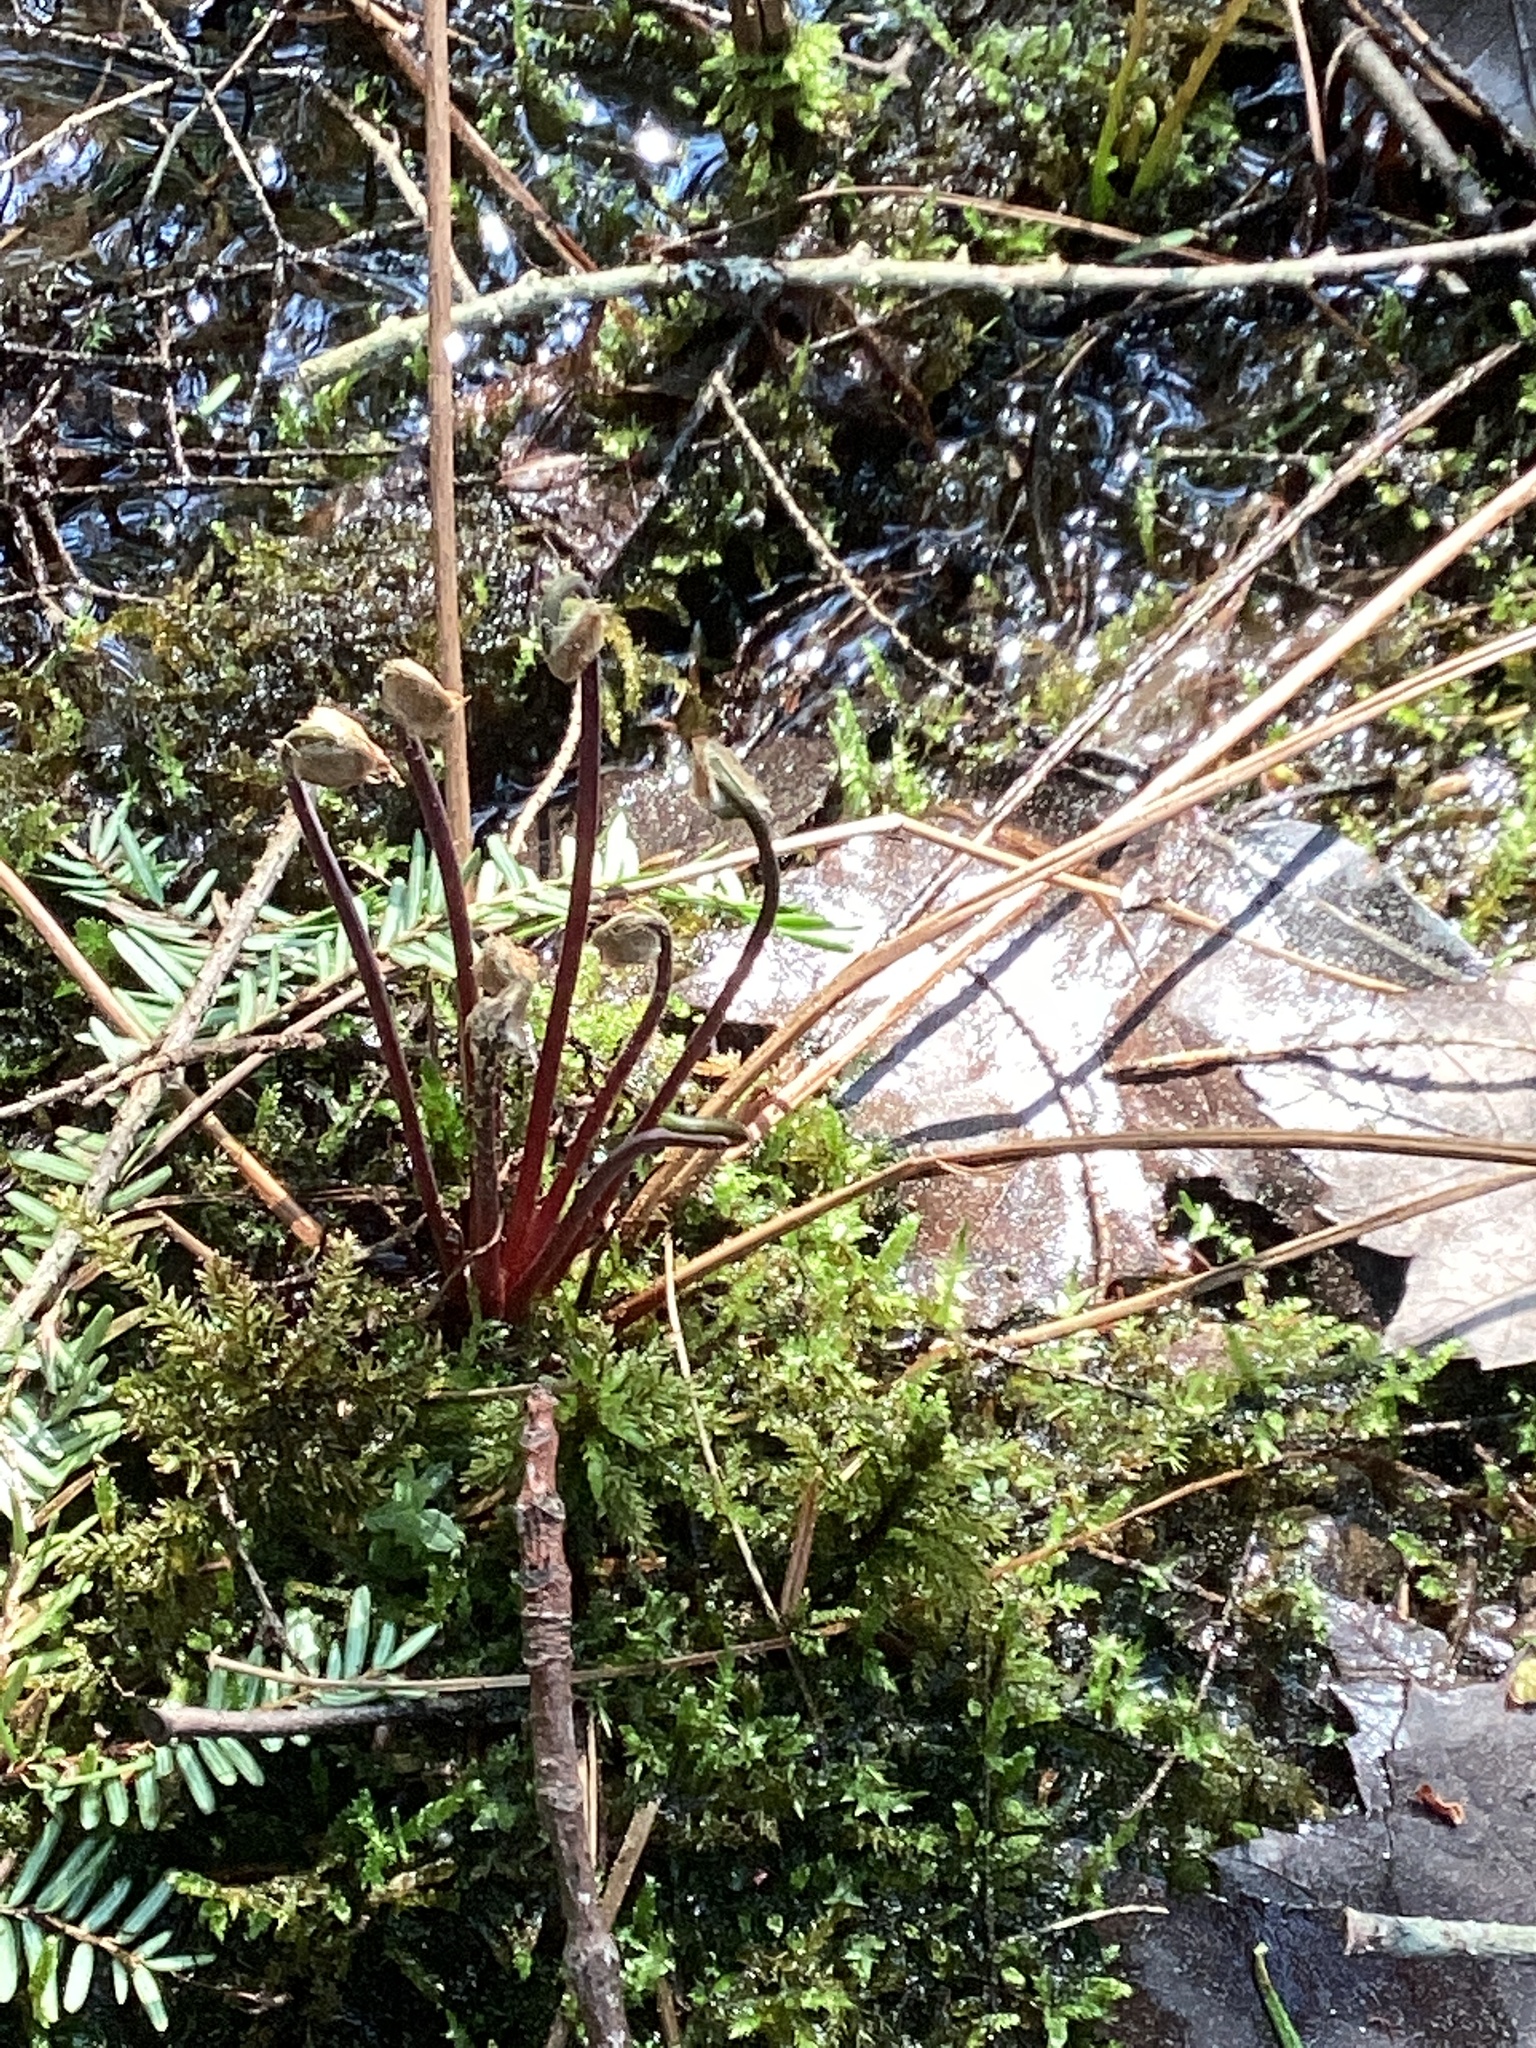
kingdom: Plantae
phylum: Tracheophyta
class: Polypodiopsida
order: Osmundales
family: Osmundaceae
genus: Osmunda
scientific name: Osmunda spectabilis
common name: American royal fern
